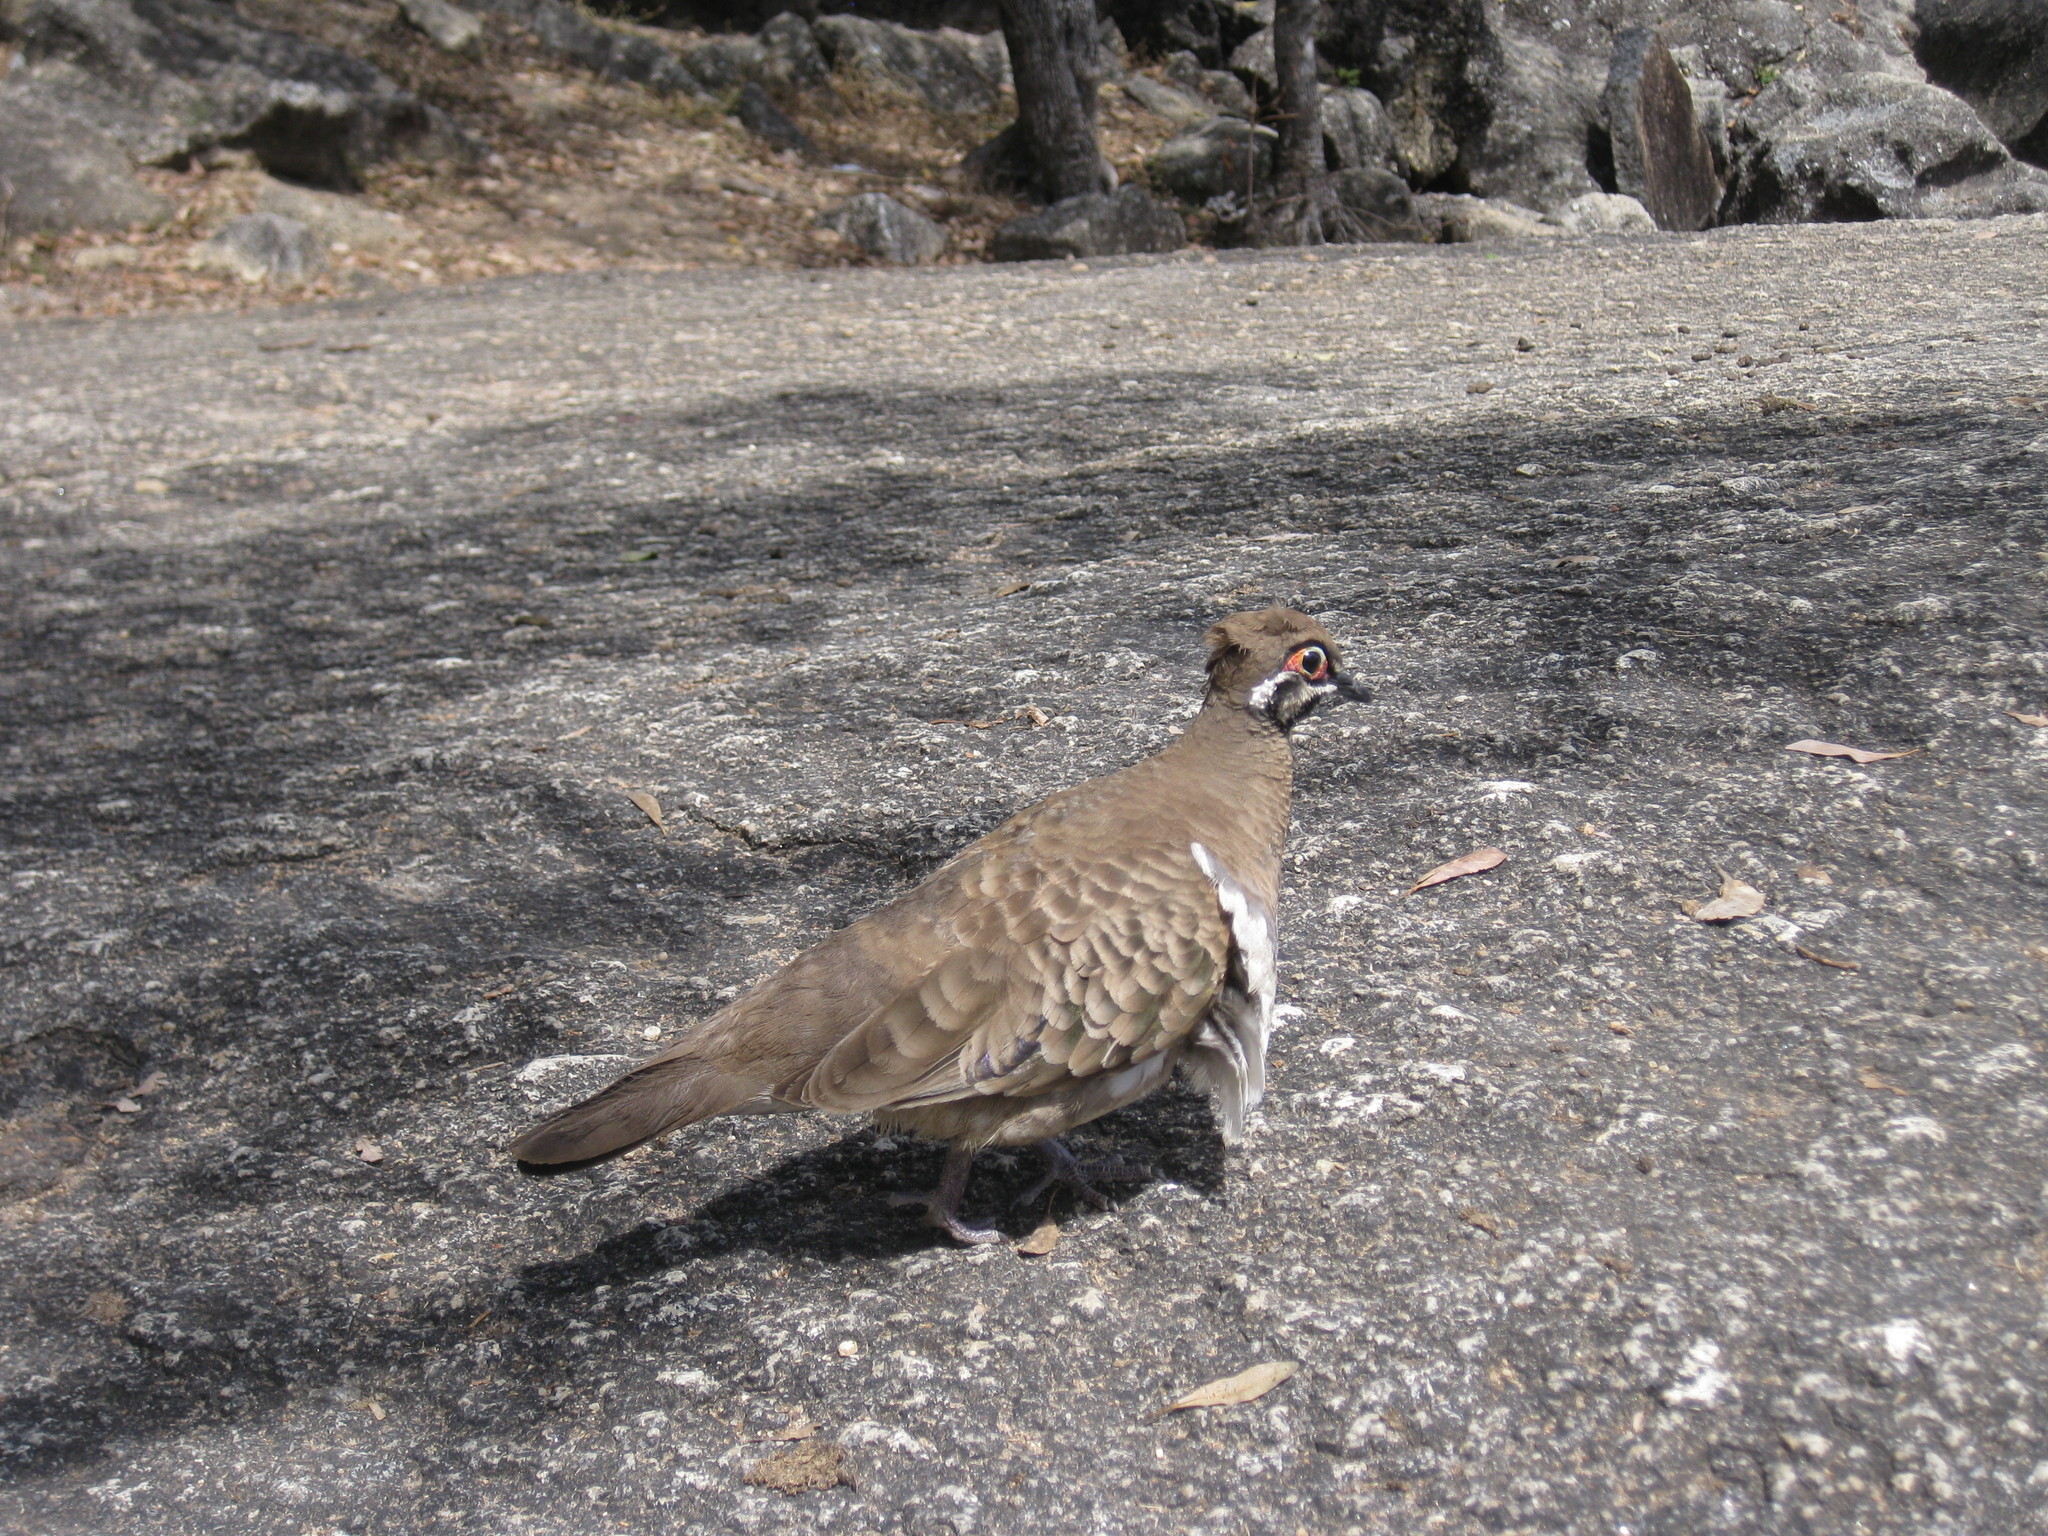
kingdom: Animalia
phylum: Chordata
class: Aves
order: Columbiformes
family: Columbidae
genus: Geophaps
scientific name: Geophaps scripta
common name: Squatter pigeon
